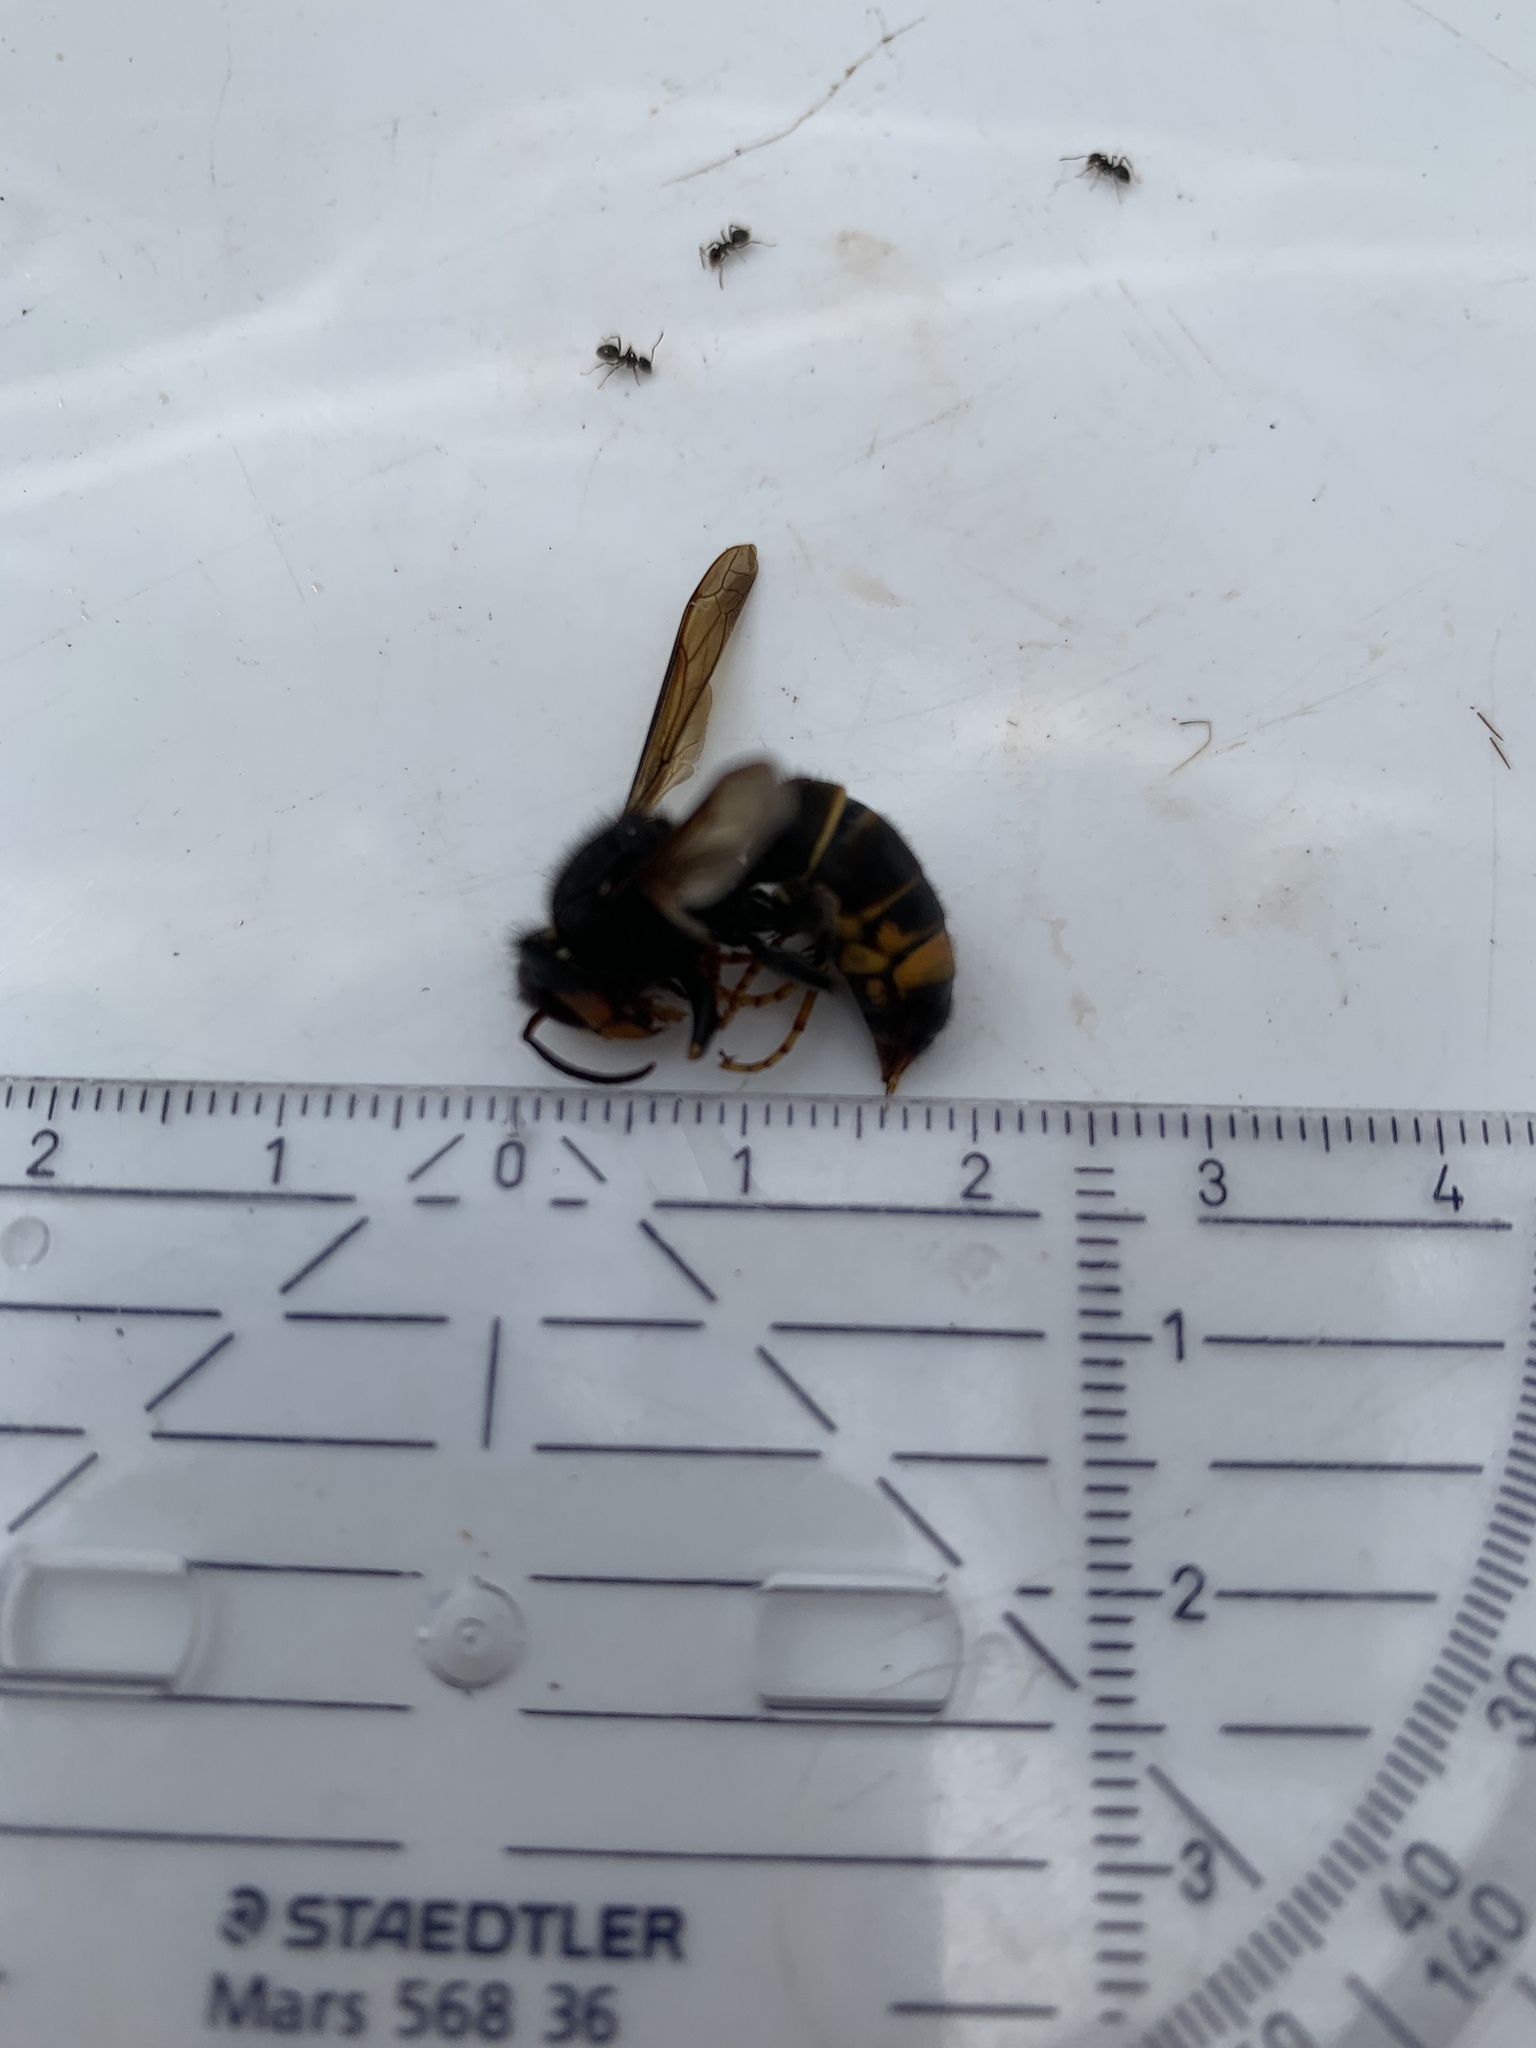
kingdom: Animalia
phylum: Arthropoda
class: Insecta
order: Hymenoptera
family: Vespidae
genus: Vespa
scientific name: Vespa velutina
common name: Asian hornet
